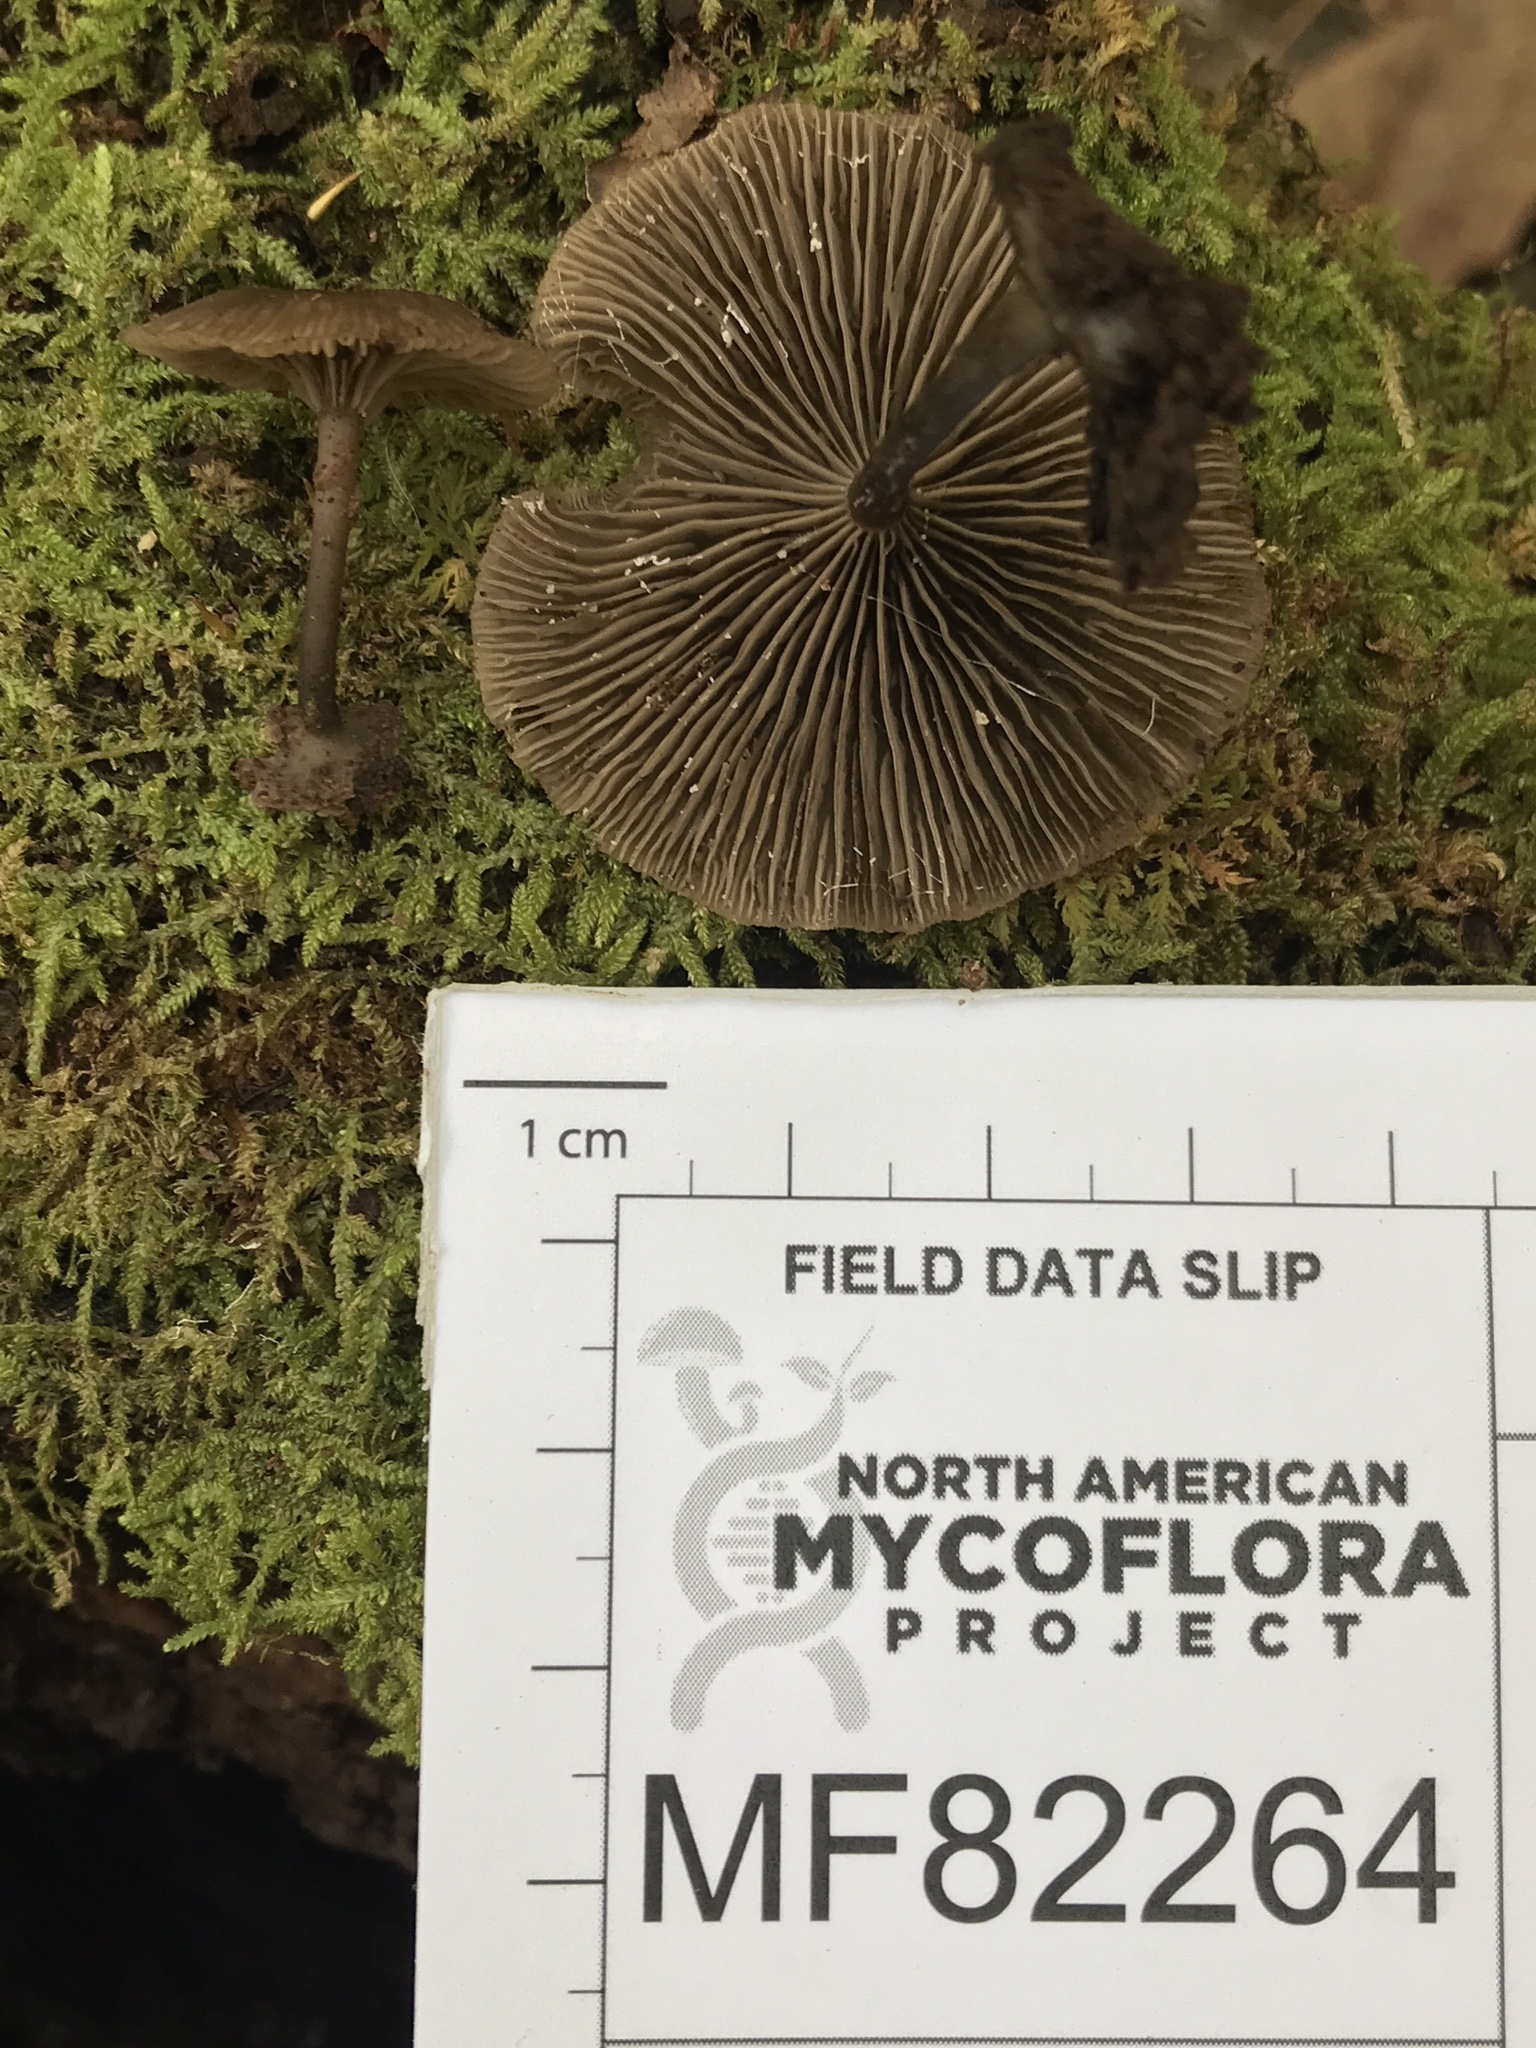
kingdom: Fungi
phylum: Basidiomycota
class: Agaricomycetes
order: Agaricales
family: Hygrophoraceae
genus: Arrhenia
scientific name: Arrhenia epichysium
